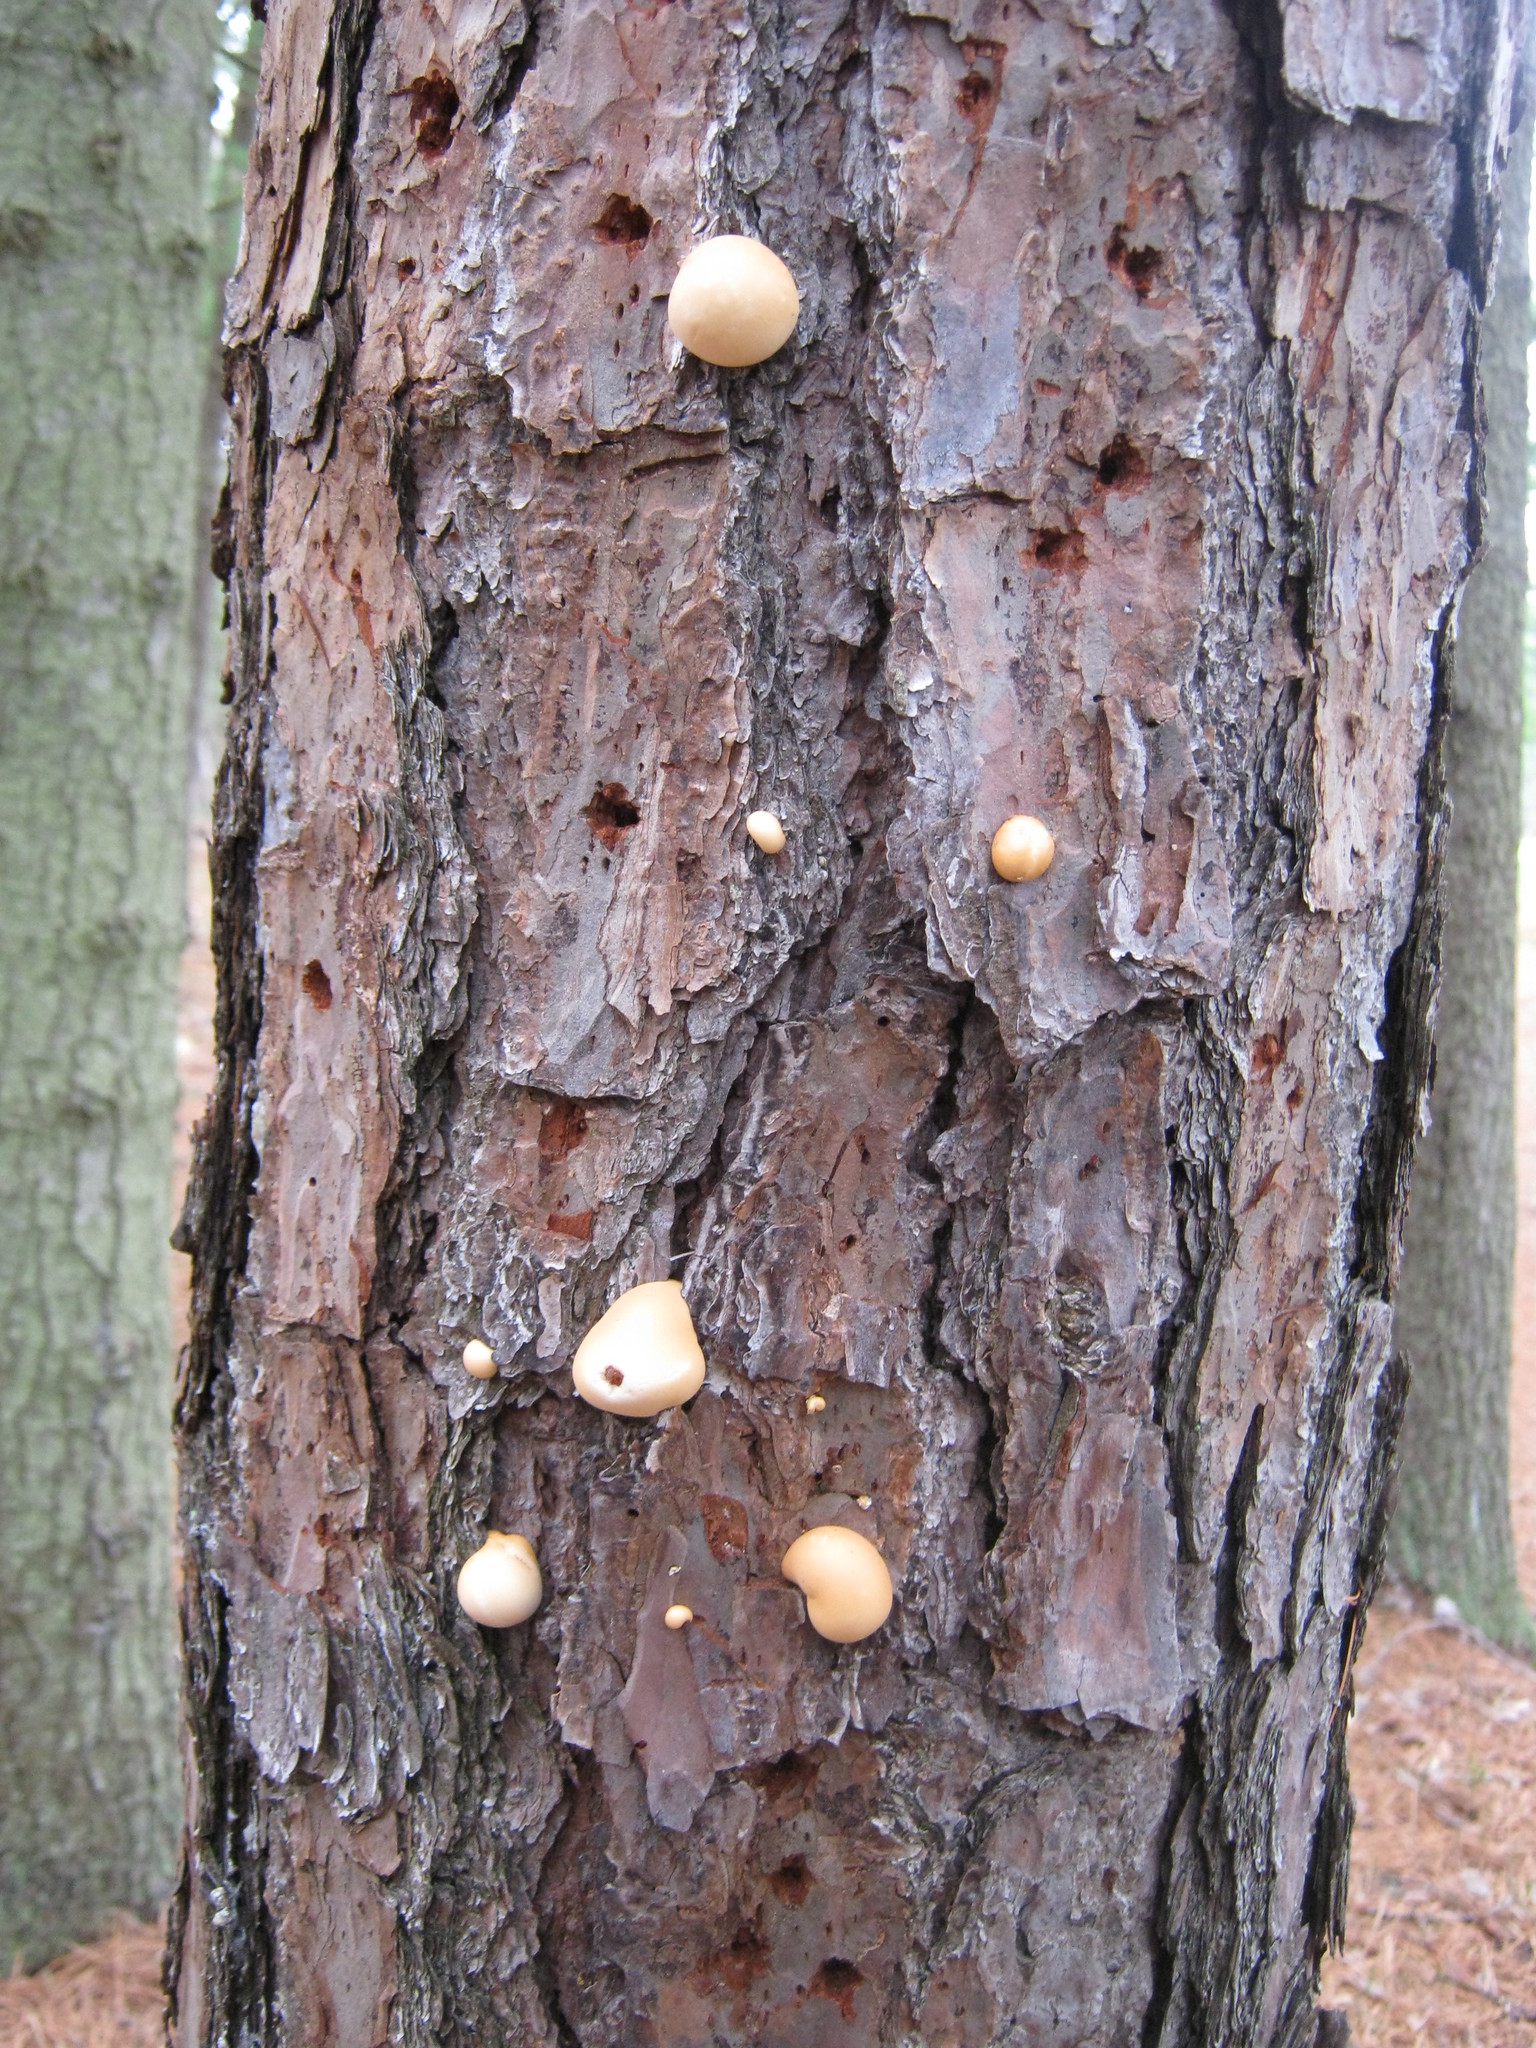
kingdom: Fungi
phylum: Basidiomycota
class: Agaricomycetes
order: Polyporales
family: Polyporaceae
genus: Cryptoporus
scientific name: Cryptoporus volvatus
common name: Veiled polypore
